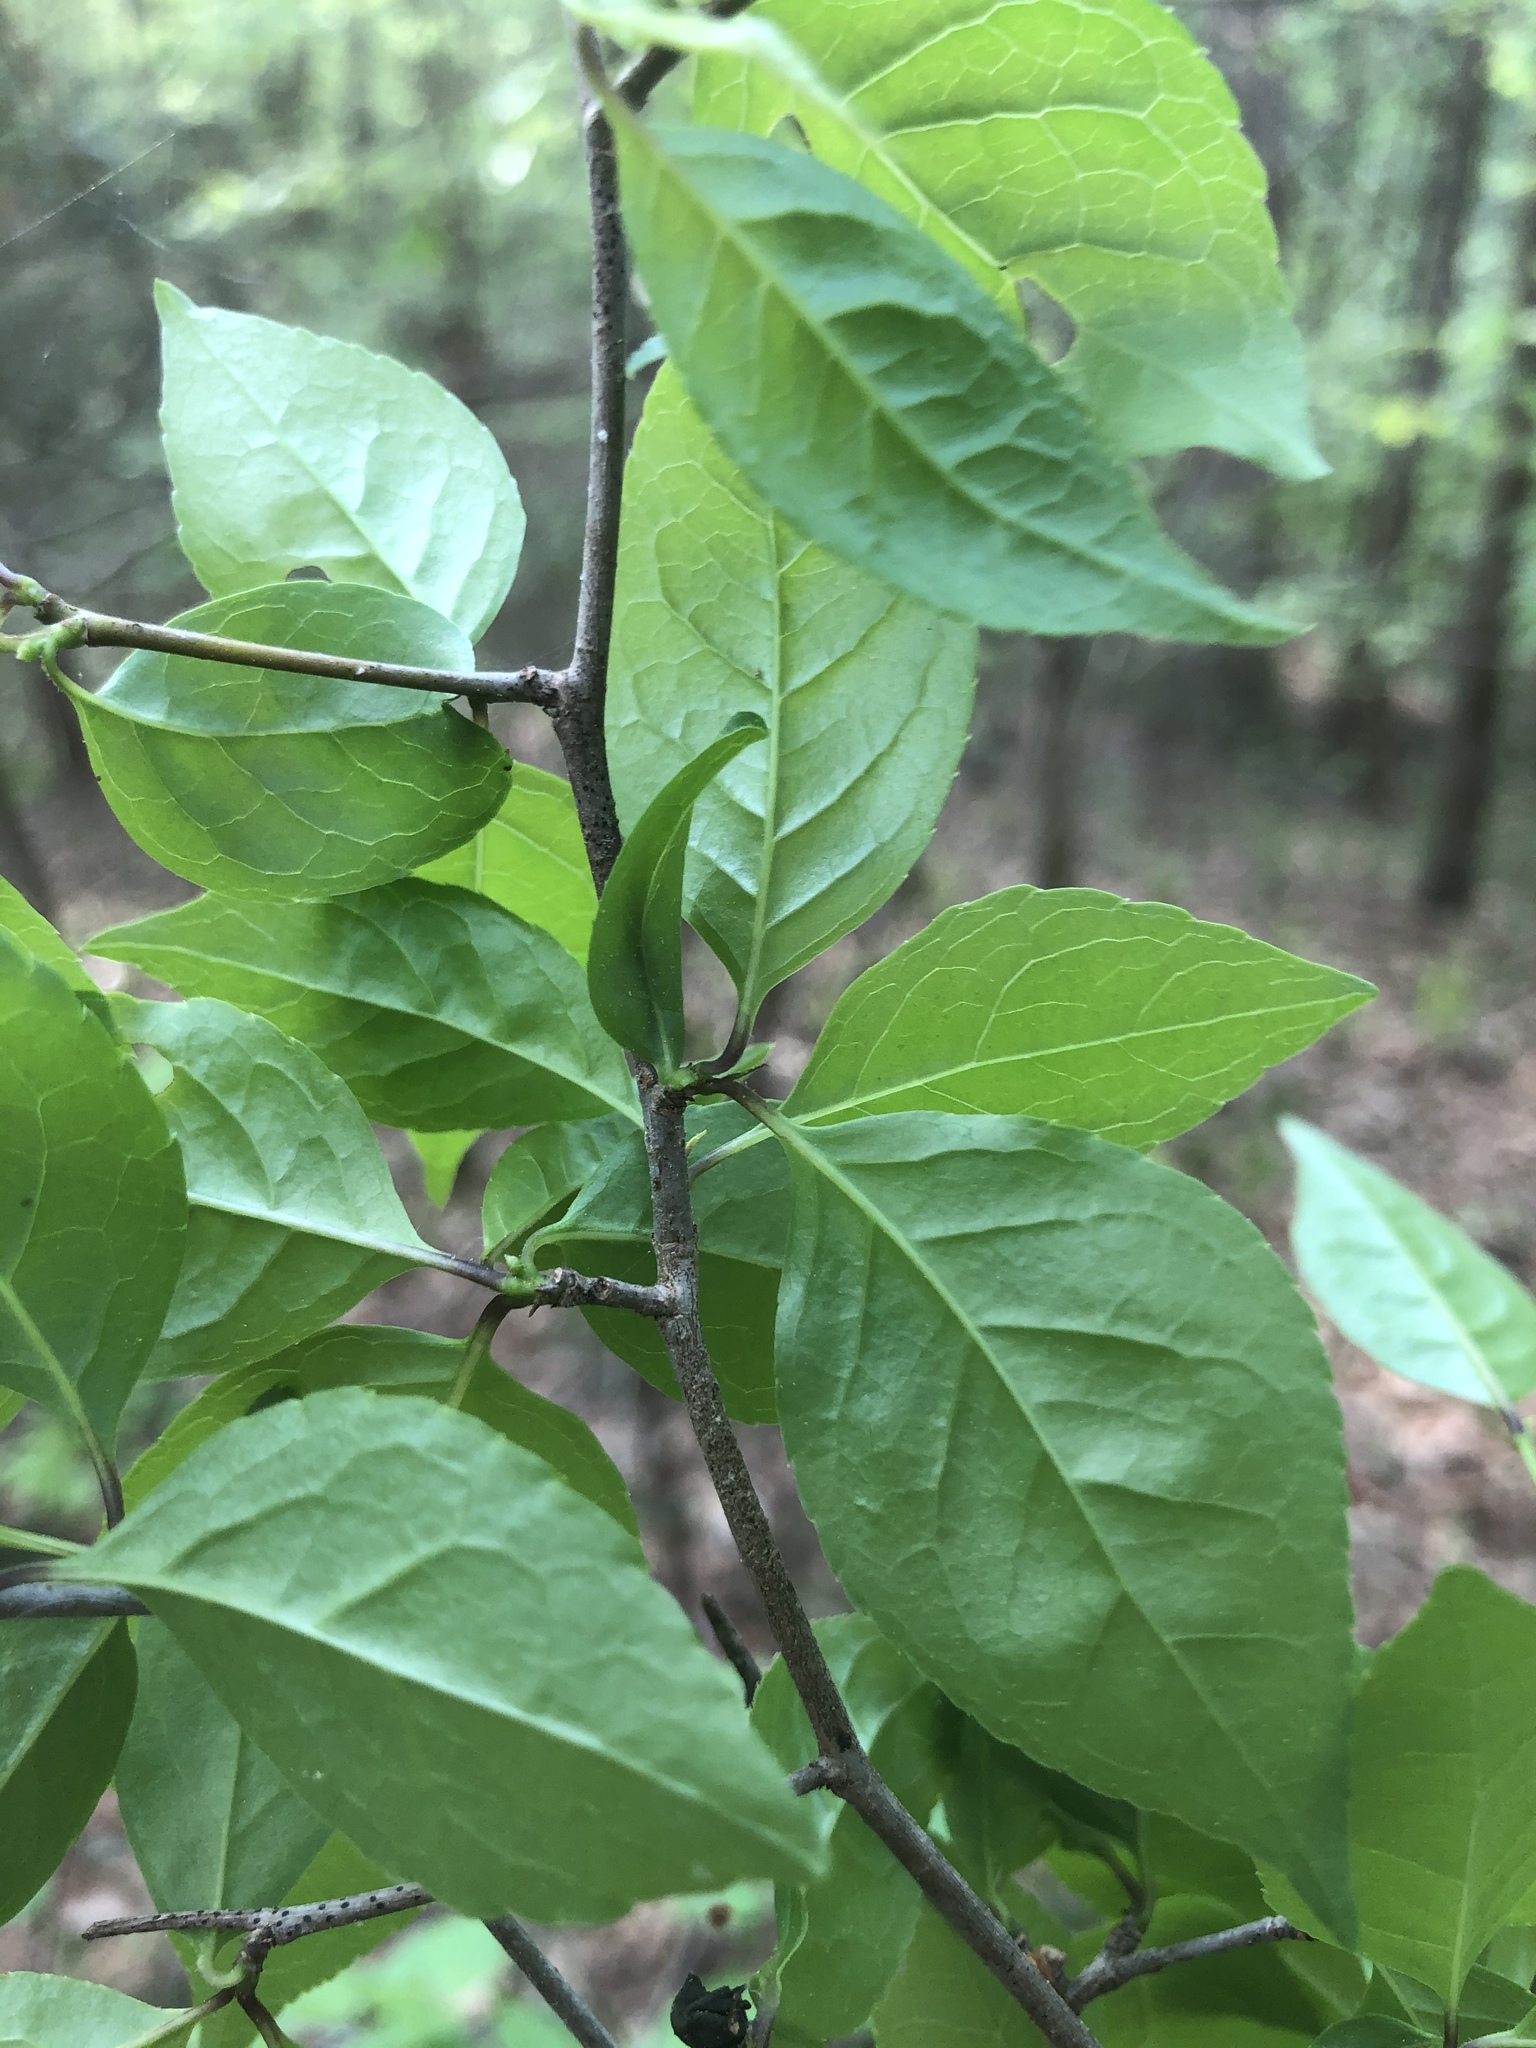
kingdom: Plantae
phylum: Tracheophyta
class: Magnoliopsida
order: Aquifoliales
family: Aquifoliaceae
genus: Ilex
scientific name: Ilex ambigua
